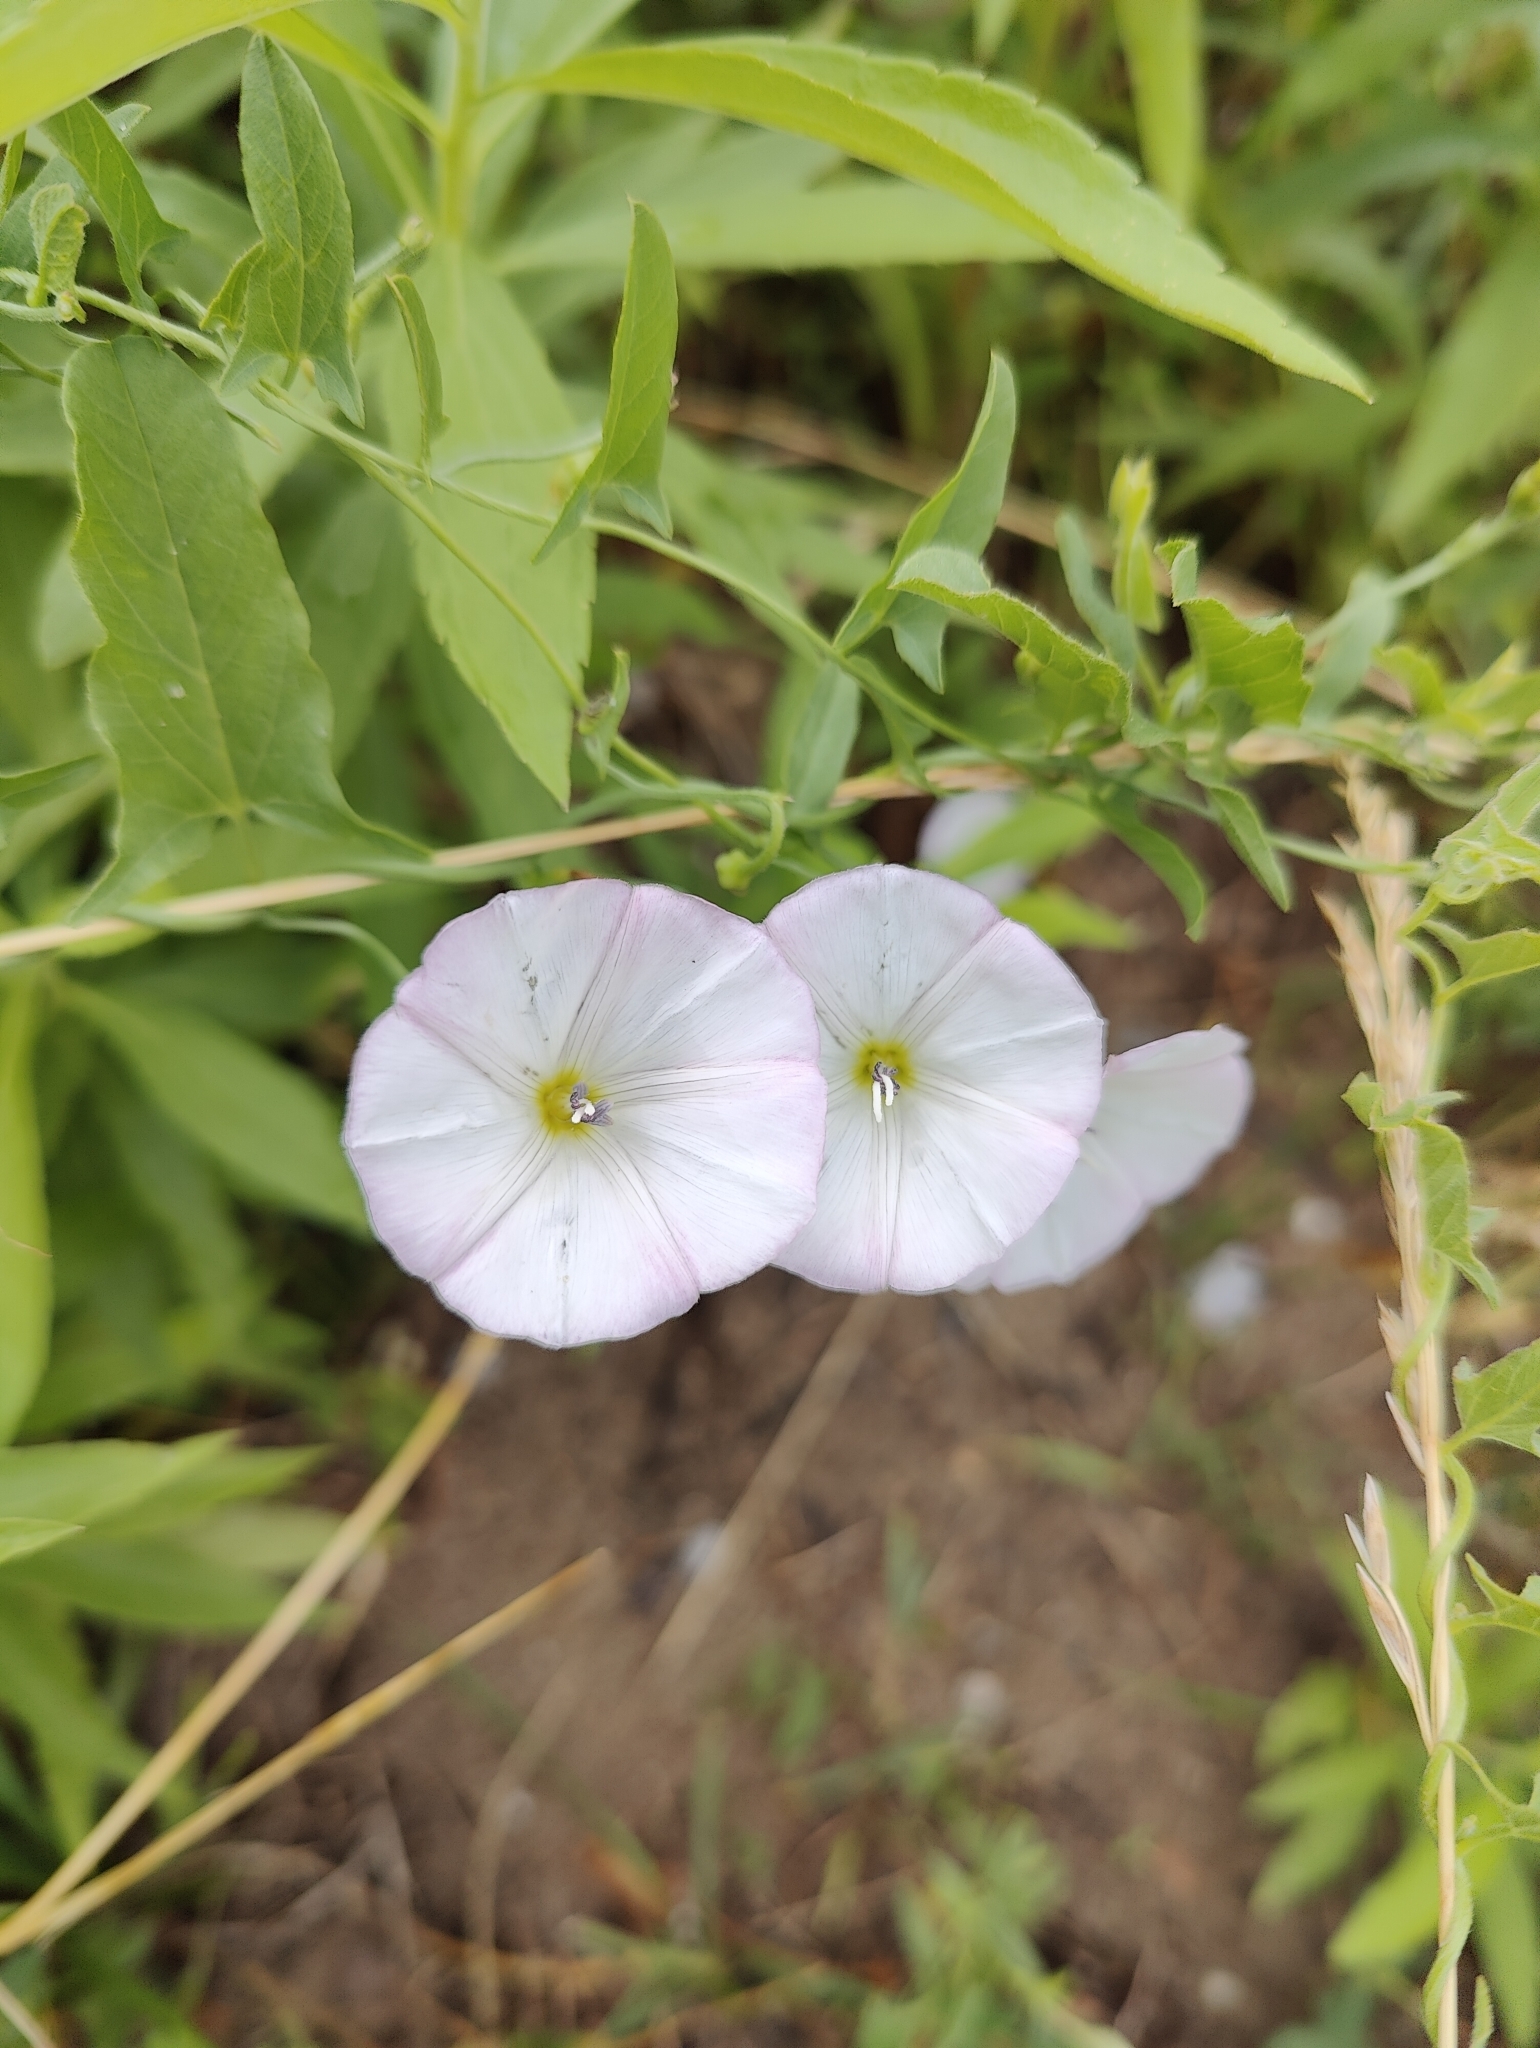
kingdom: Plantae
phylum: Tracheophyta
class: Magnoliopsida
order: Solanales
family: Convolvulaceae
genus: Convolvulus
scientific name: Convolvulus arvensis
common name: Field bindweed
